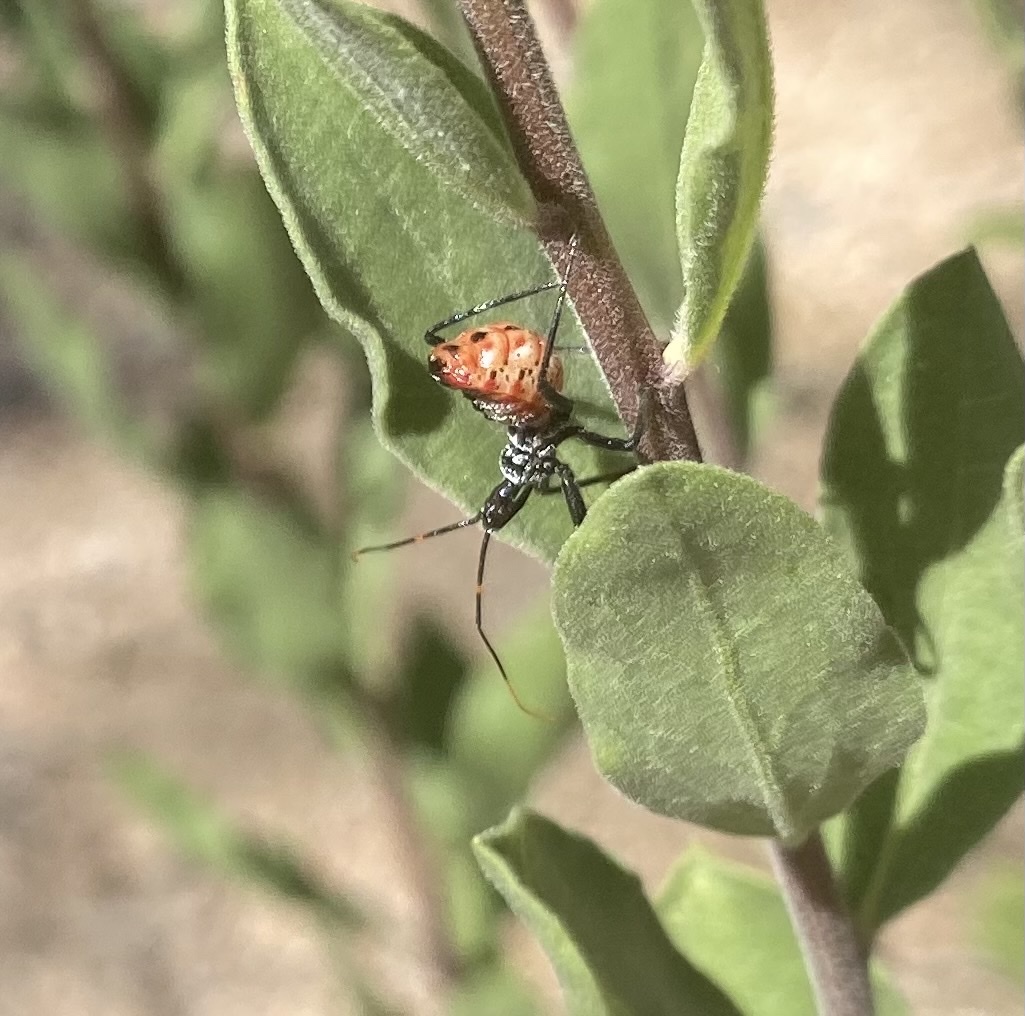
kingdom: Animalia
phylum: Arthropoda
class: Insecta
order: Hemiptera
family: Reduviidae
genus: Arilus
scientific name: Arilus cristatus
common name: North american wheel bug
